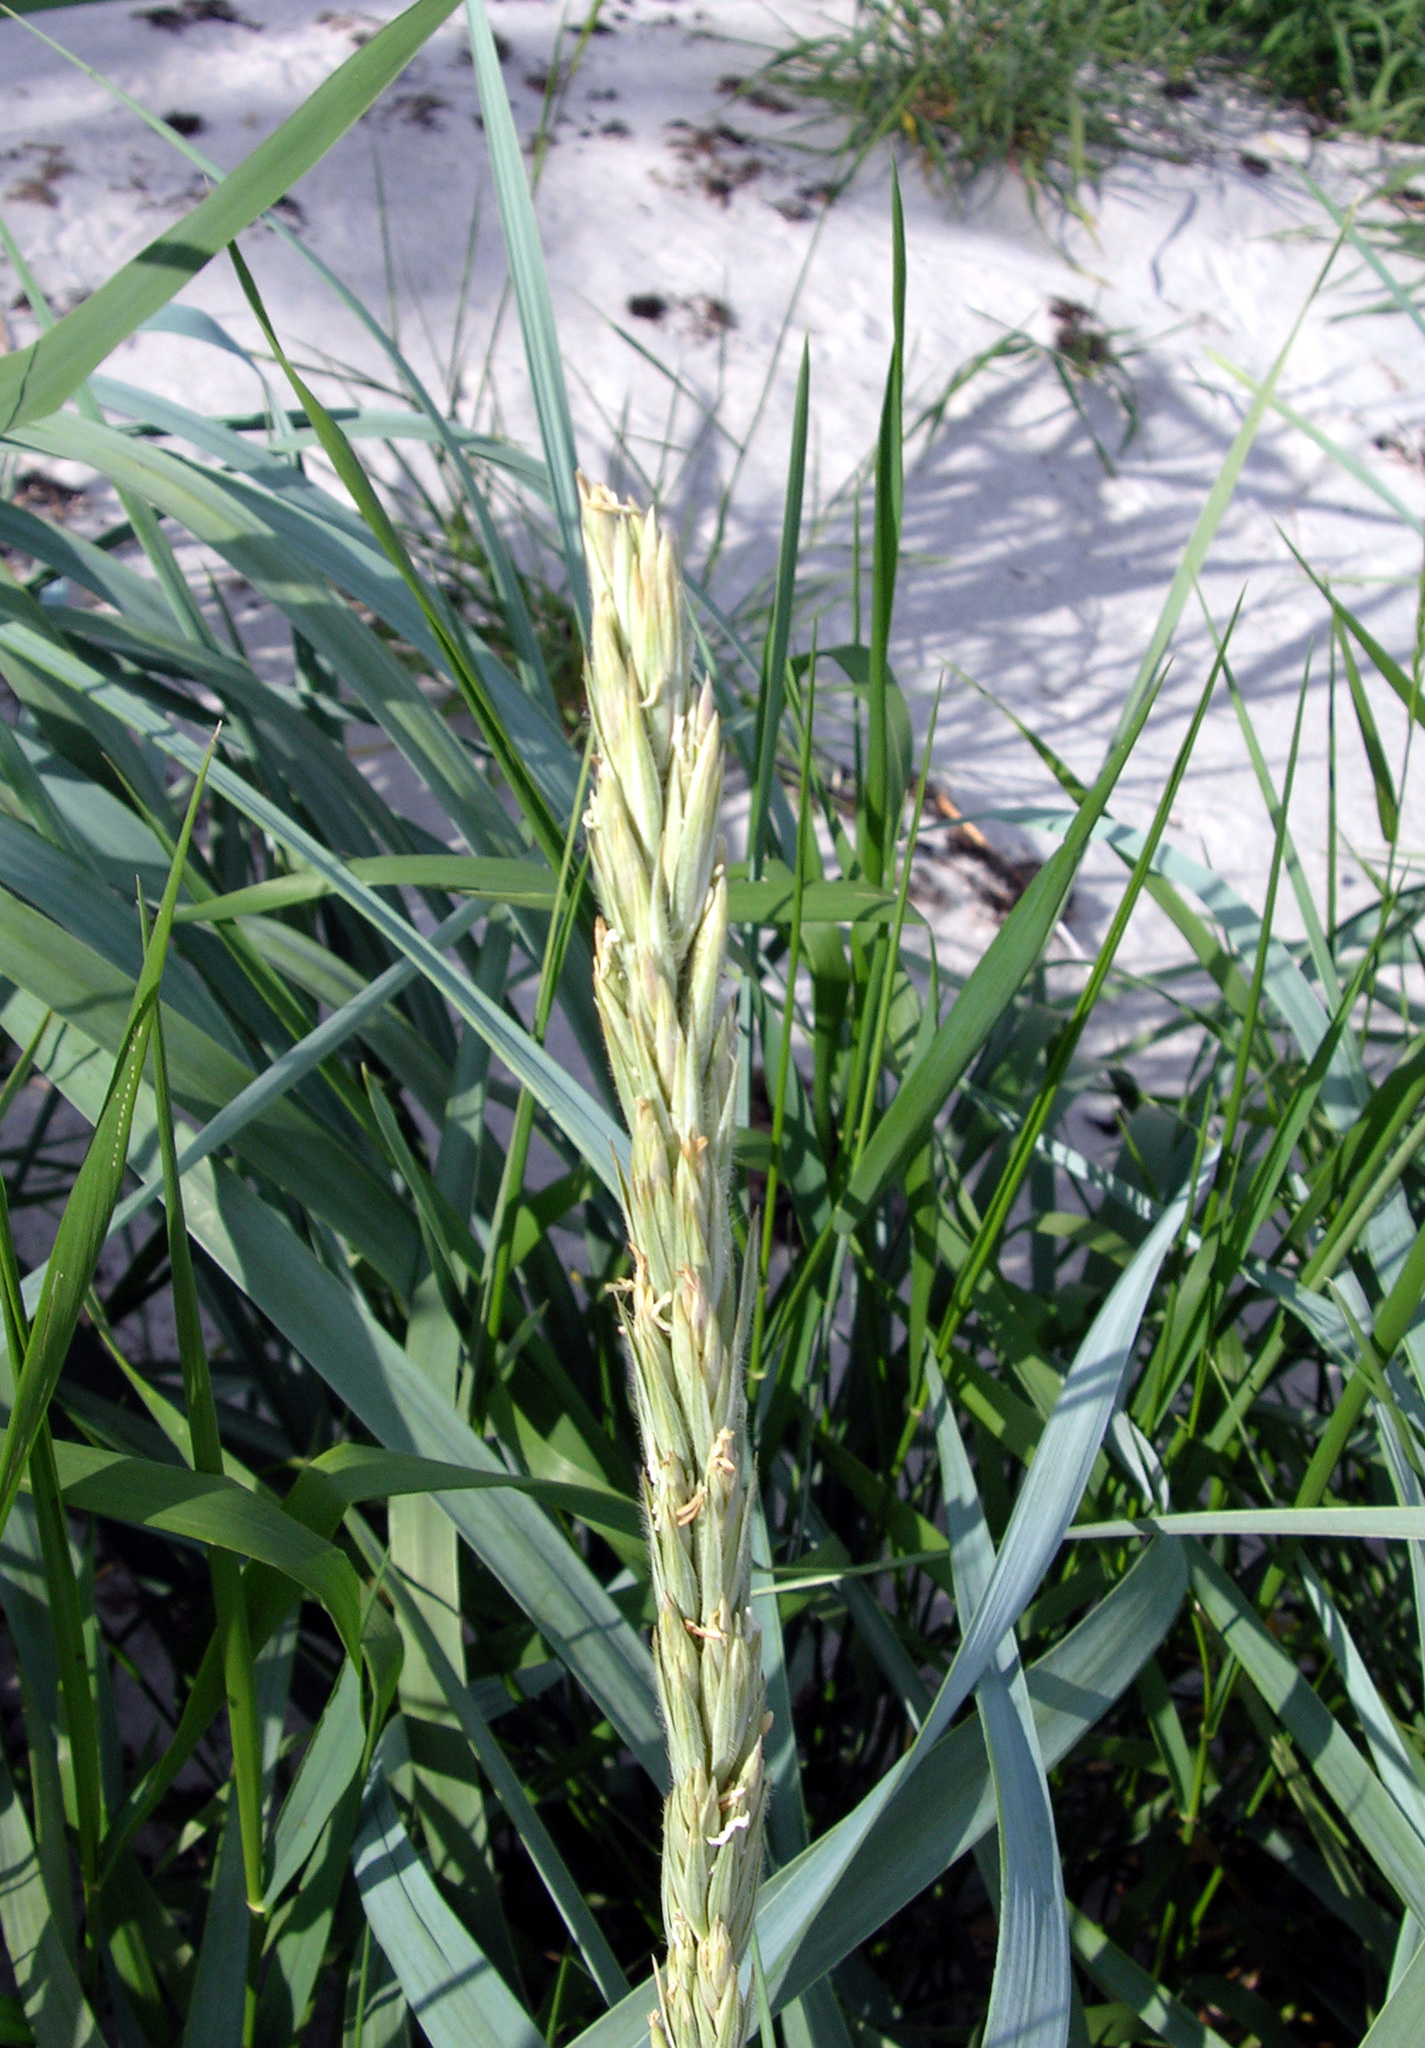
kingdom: Plantae
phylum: Tracheophyta
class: Liliopsida
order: Poales
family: Poaceae
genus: Leymus
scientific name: Leymus arenarius
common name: Lyme-grass
